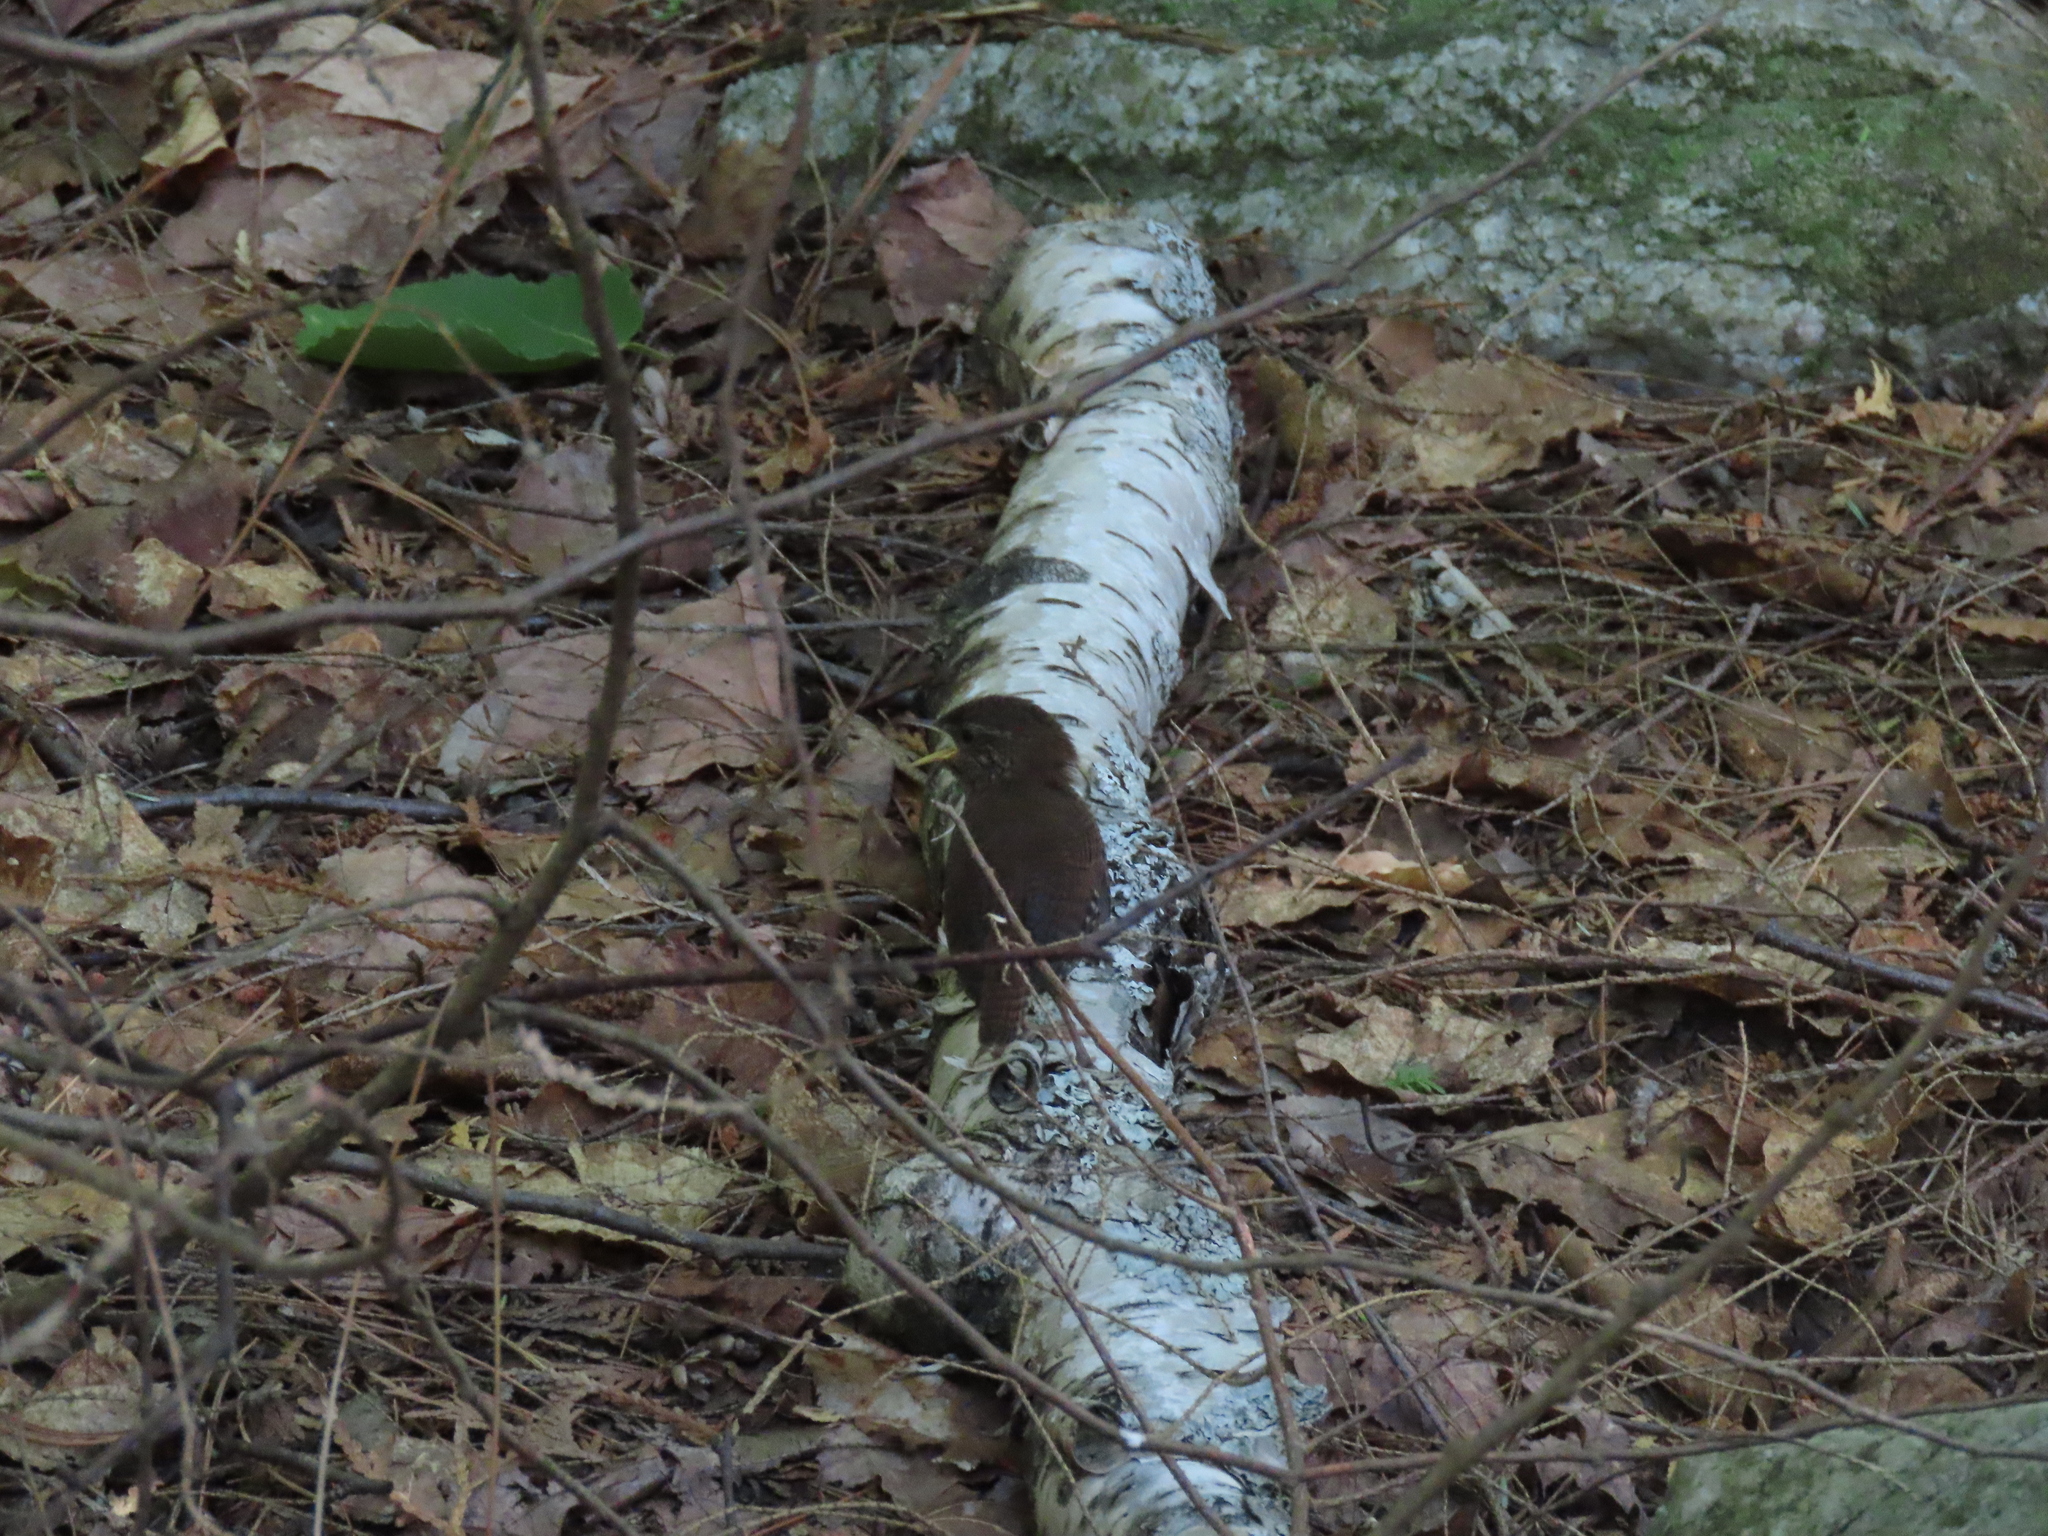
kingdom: Animalia
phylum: Chordata
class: Aves
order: Passeriformes
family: Troglodytidae
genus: Troglodytes
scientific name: Troglodytes hiemalis
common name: Winter wren
